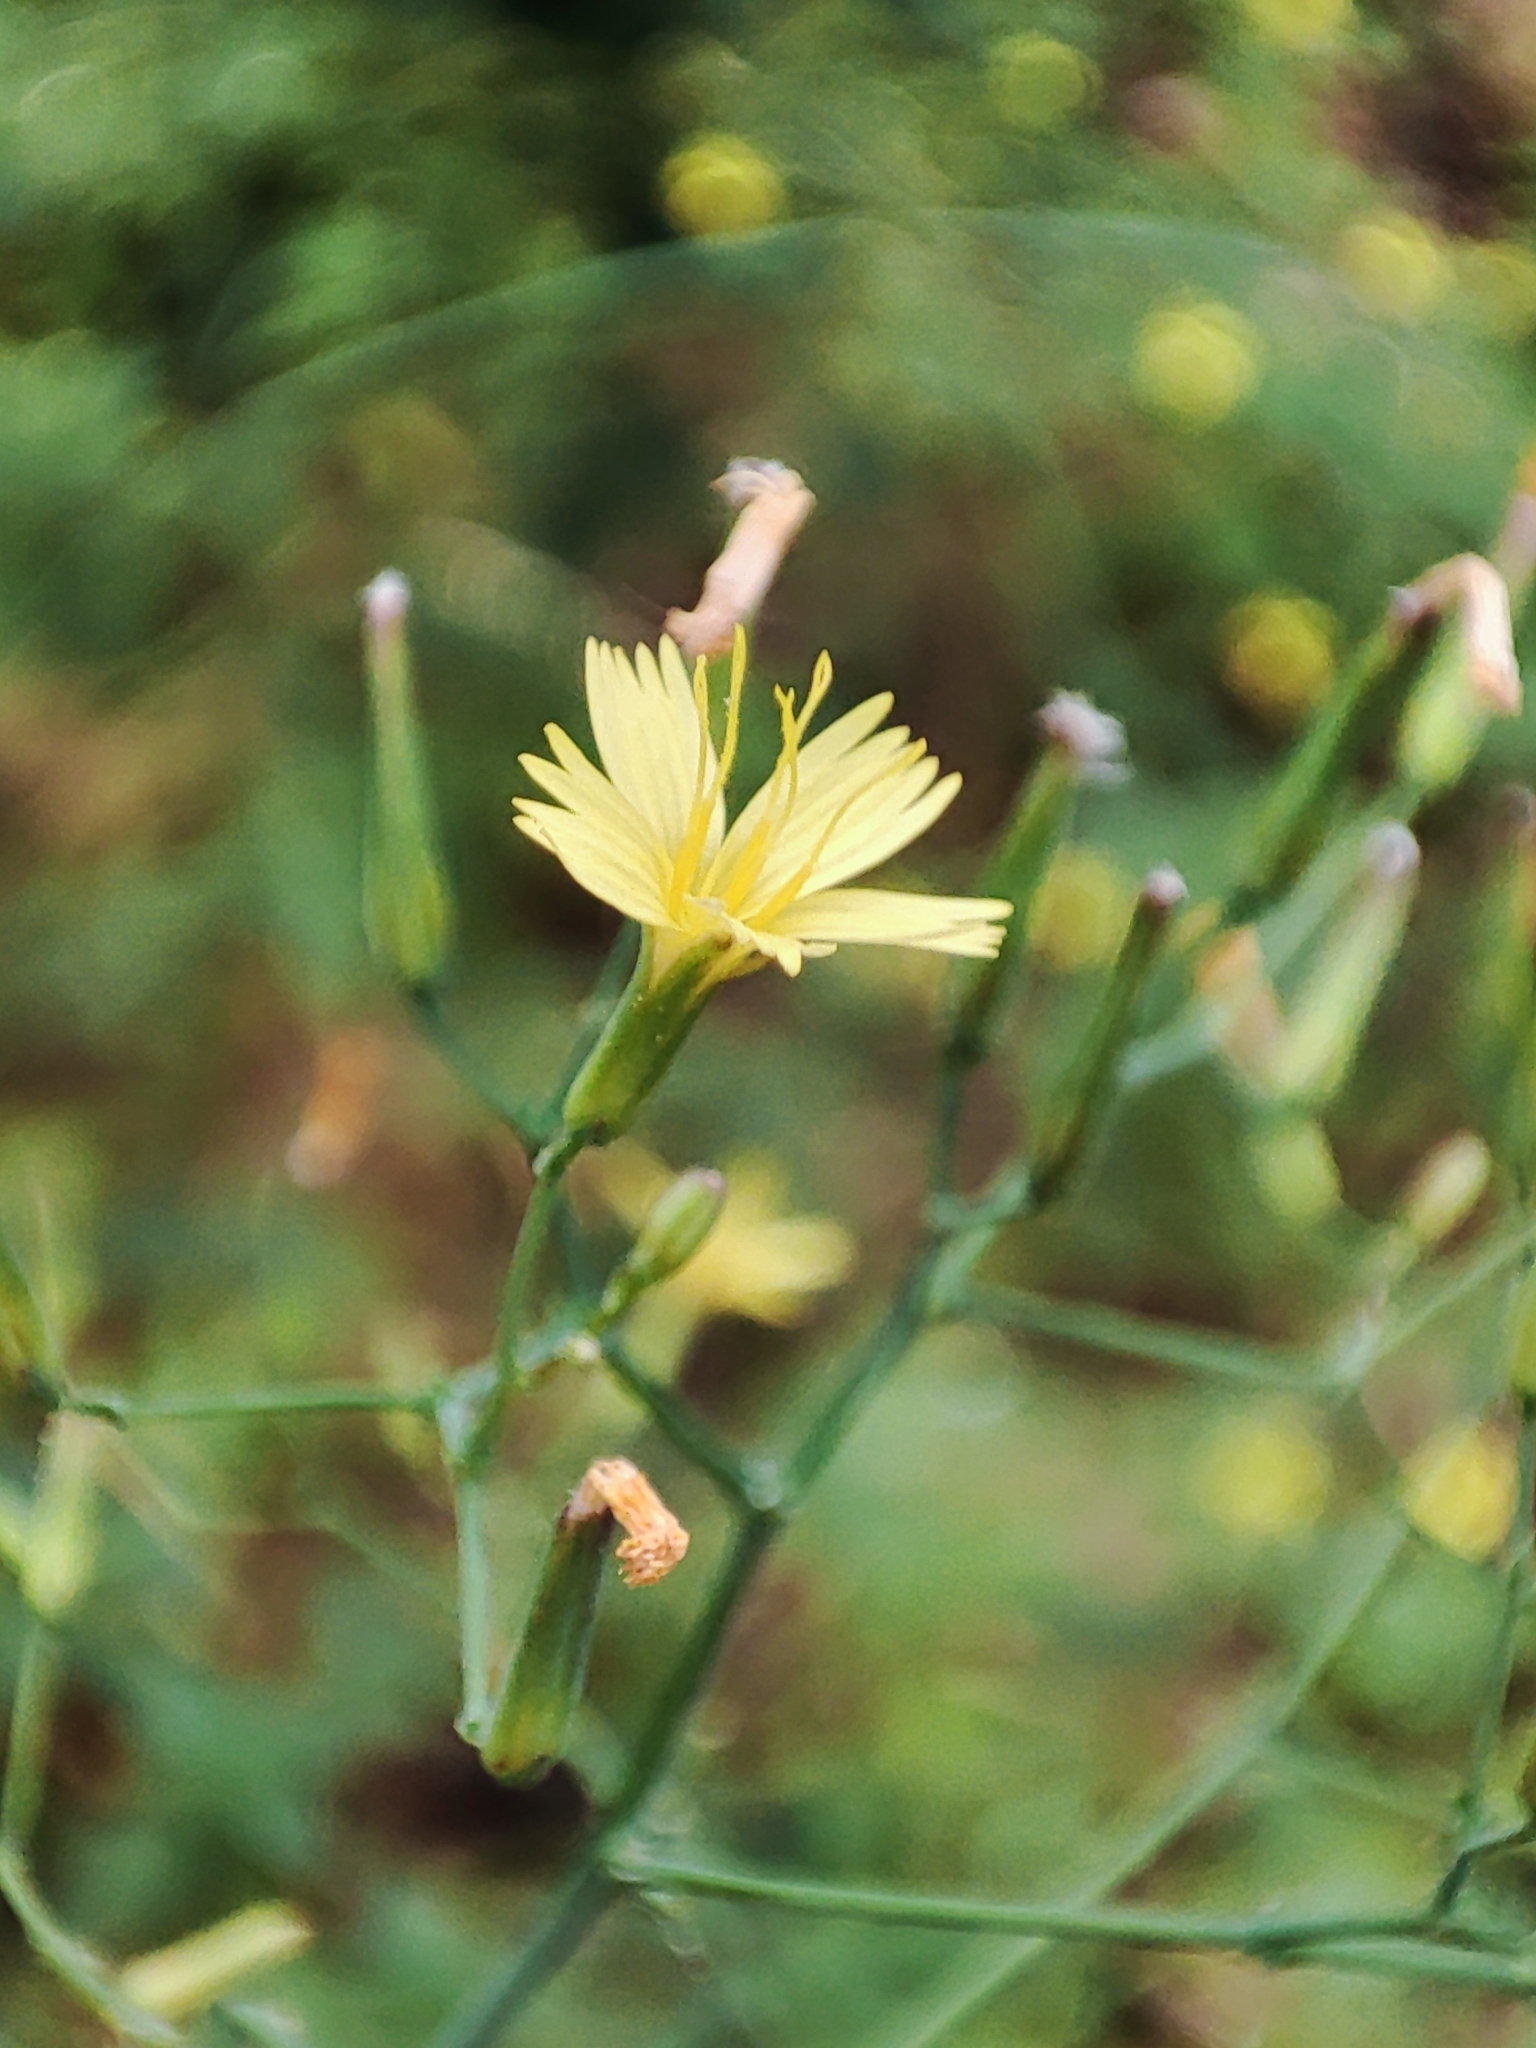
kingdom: Plantae
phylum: Tracheophyta
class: Magnoliopsida
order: Asterales
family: Asteraceae
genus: Mycelis
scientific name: Mycelis muralis
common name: Wall lettuce
